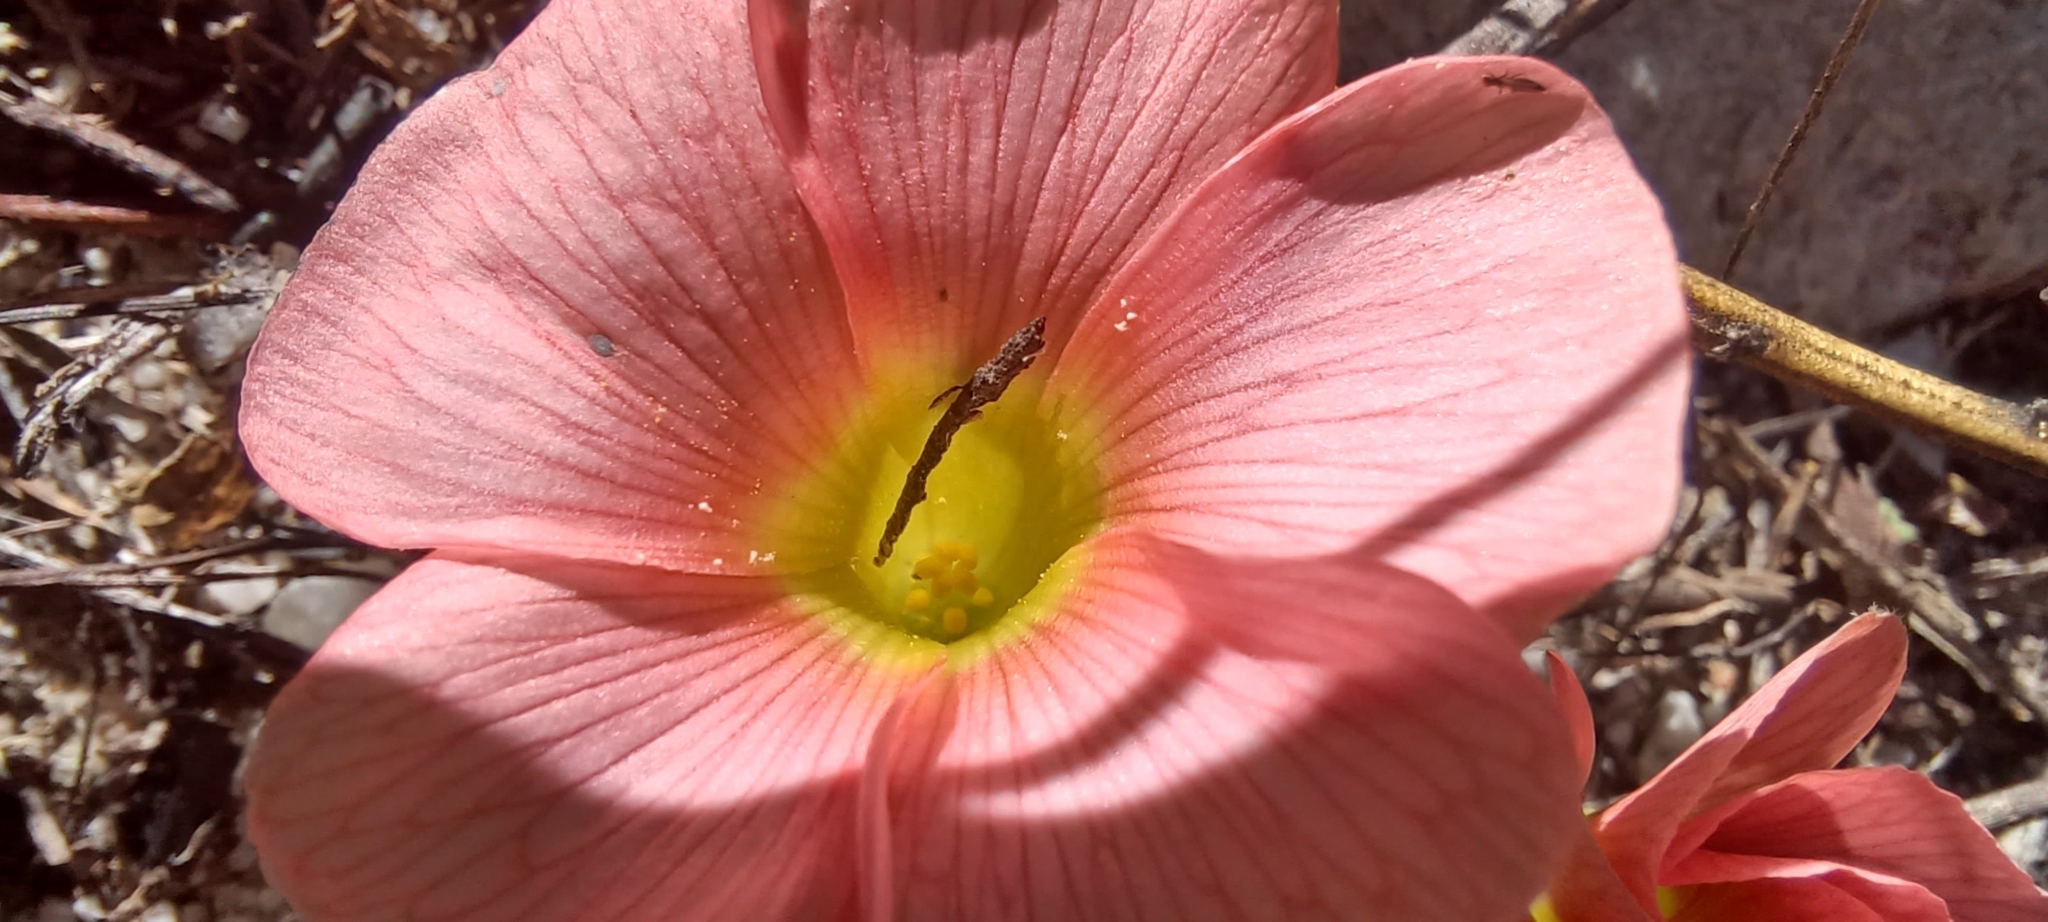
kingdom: Plantae
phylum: Tracheophyta
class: Magnoliopsida
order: Oxalidales
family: Oxalidaceae
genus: Oxalis
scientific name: Oxalis pulchella
